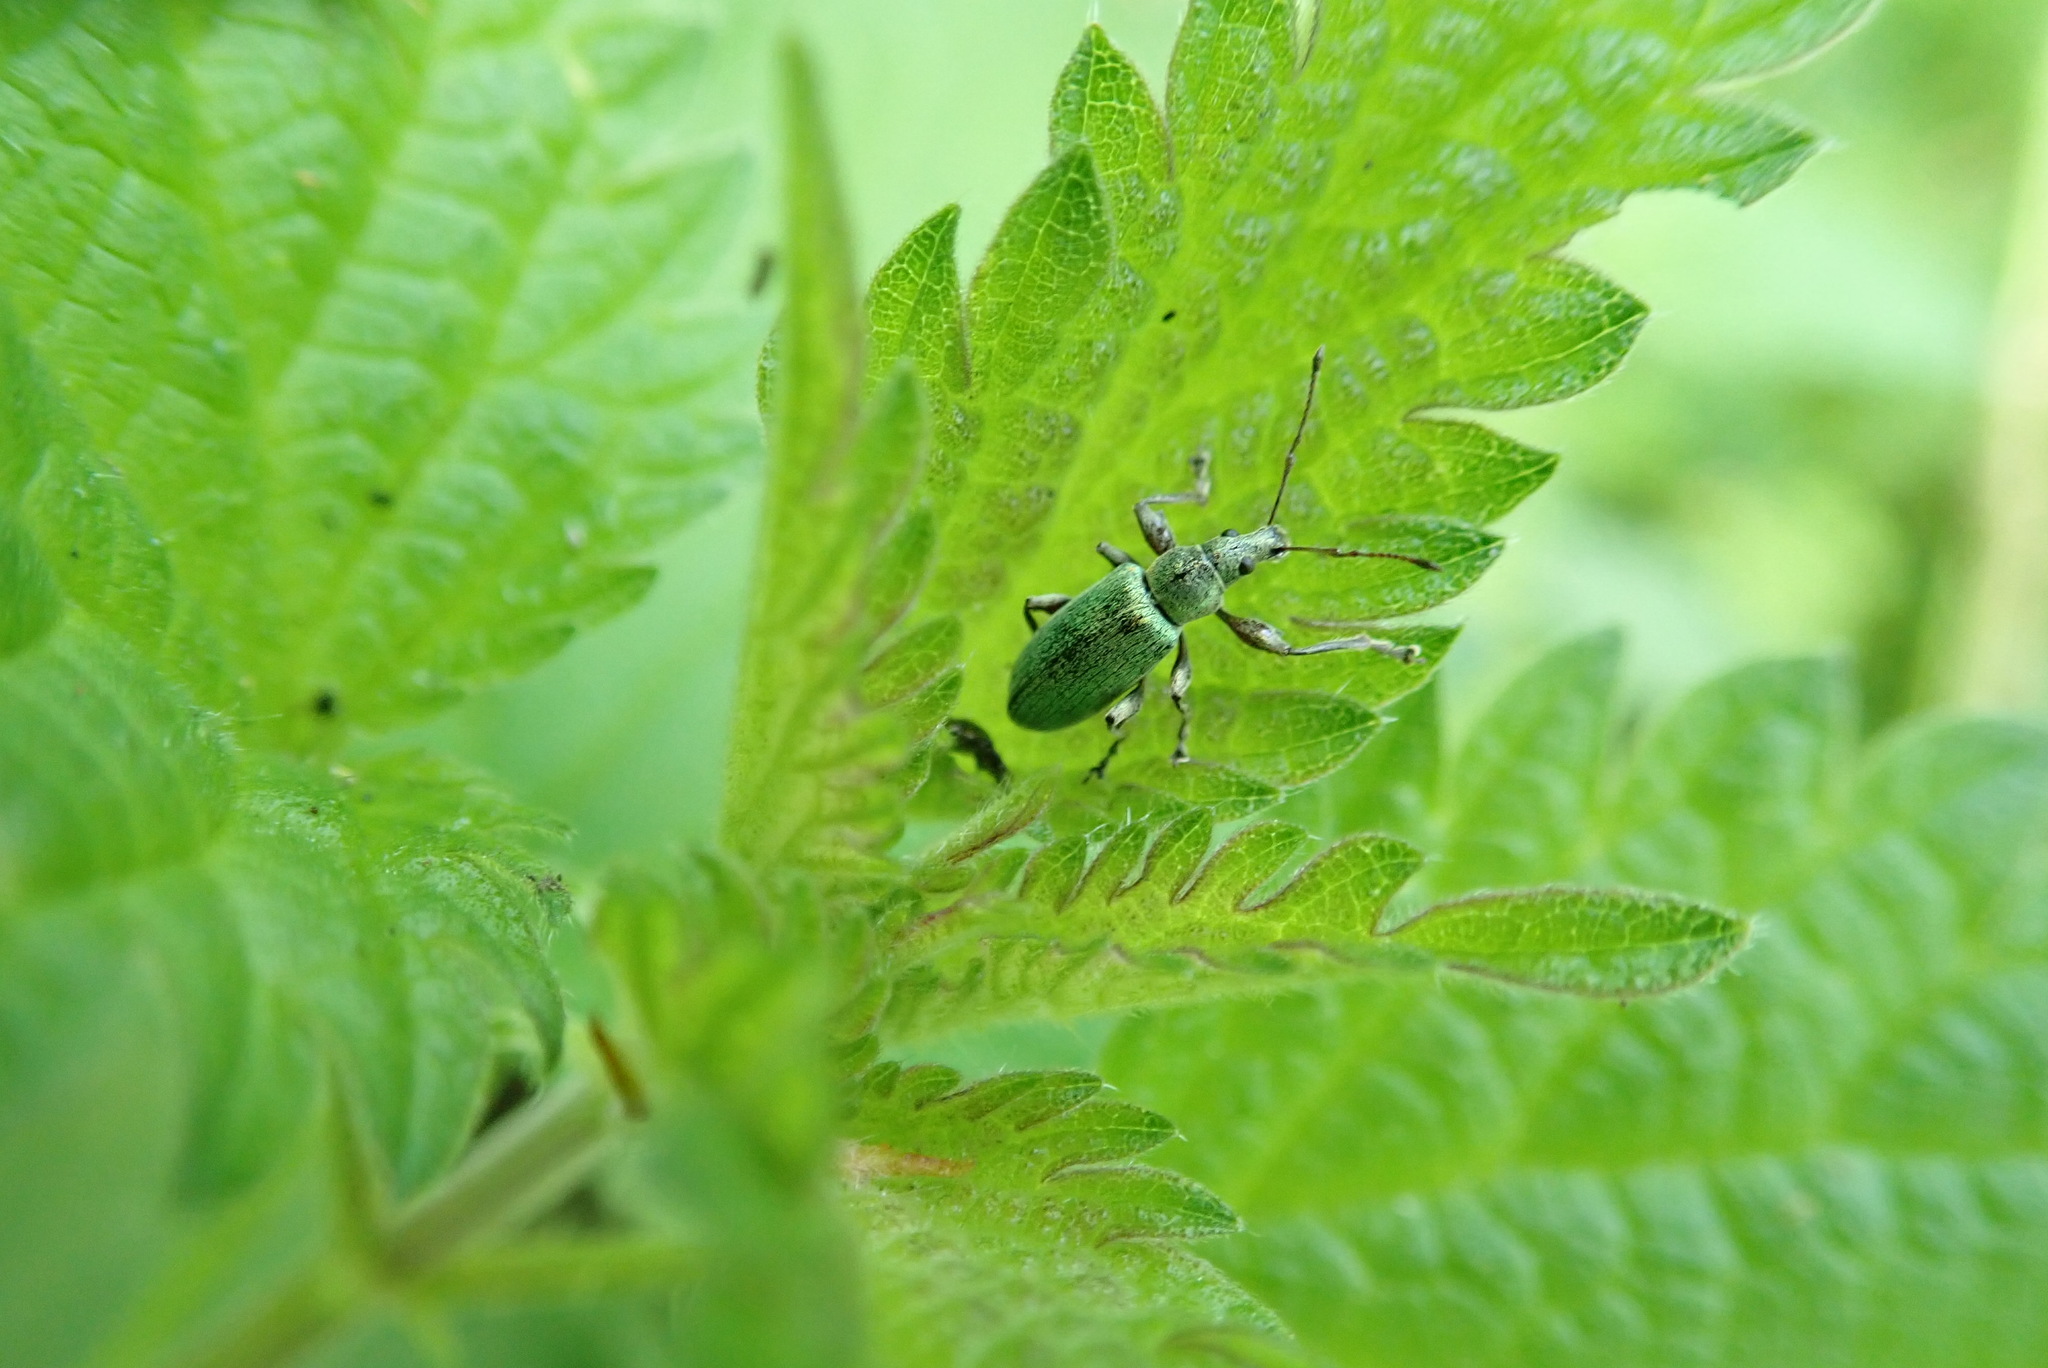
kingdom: Animalia
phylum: Arthropoda
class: Insecta
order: Coleoptera
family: Curculionidae
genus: Phyllobius
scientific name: Phyllobius pomaceus
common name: Green nettle weevil
